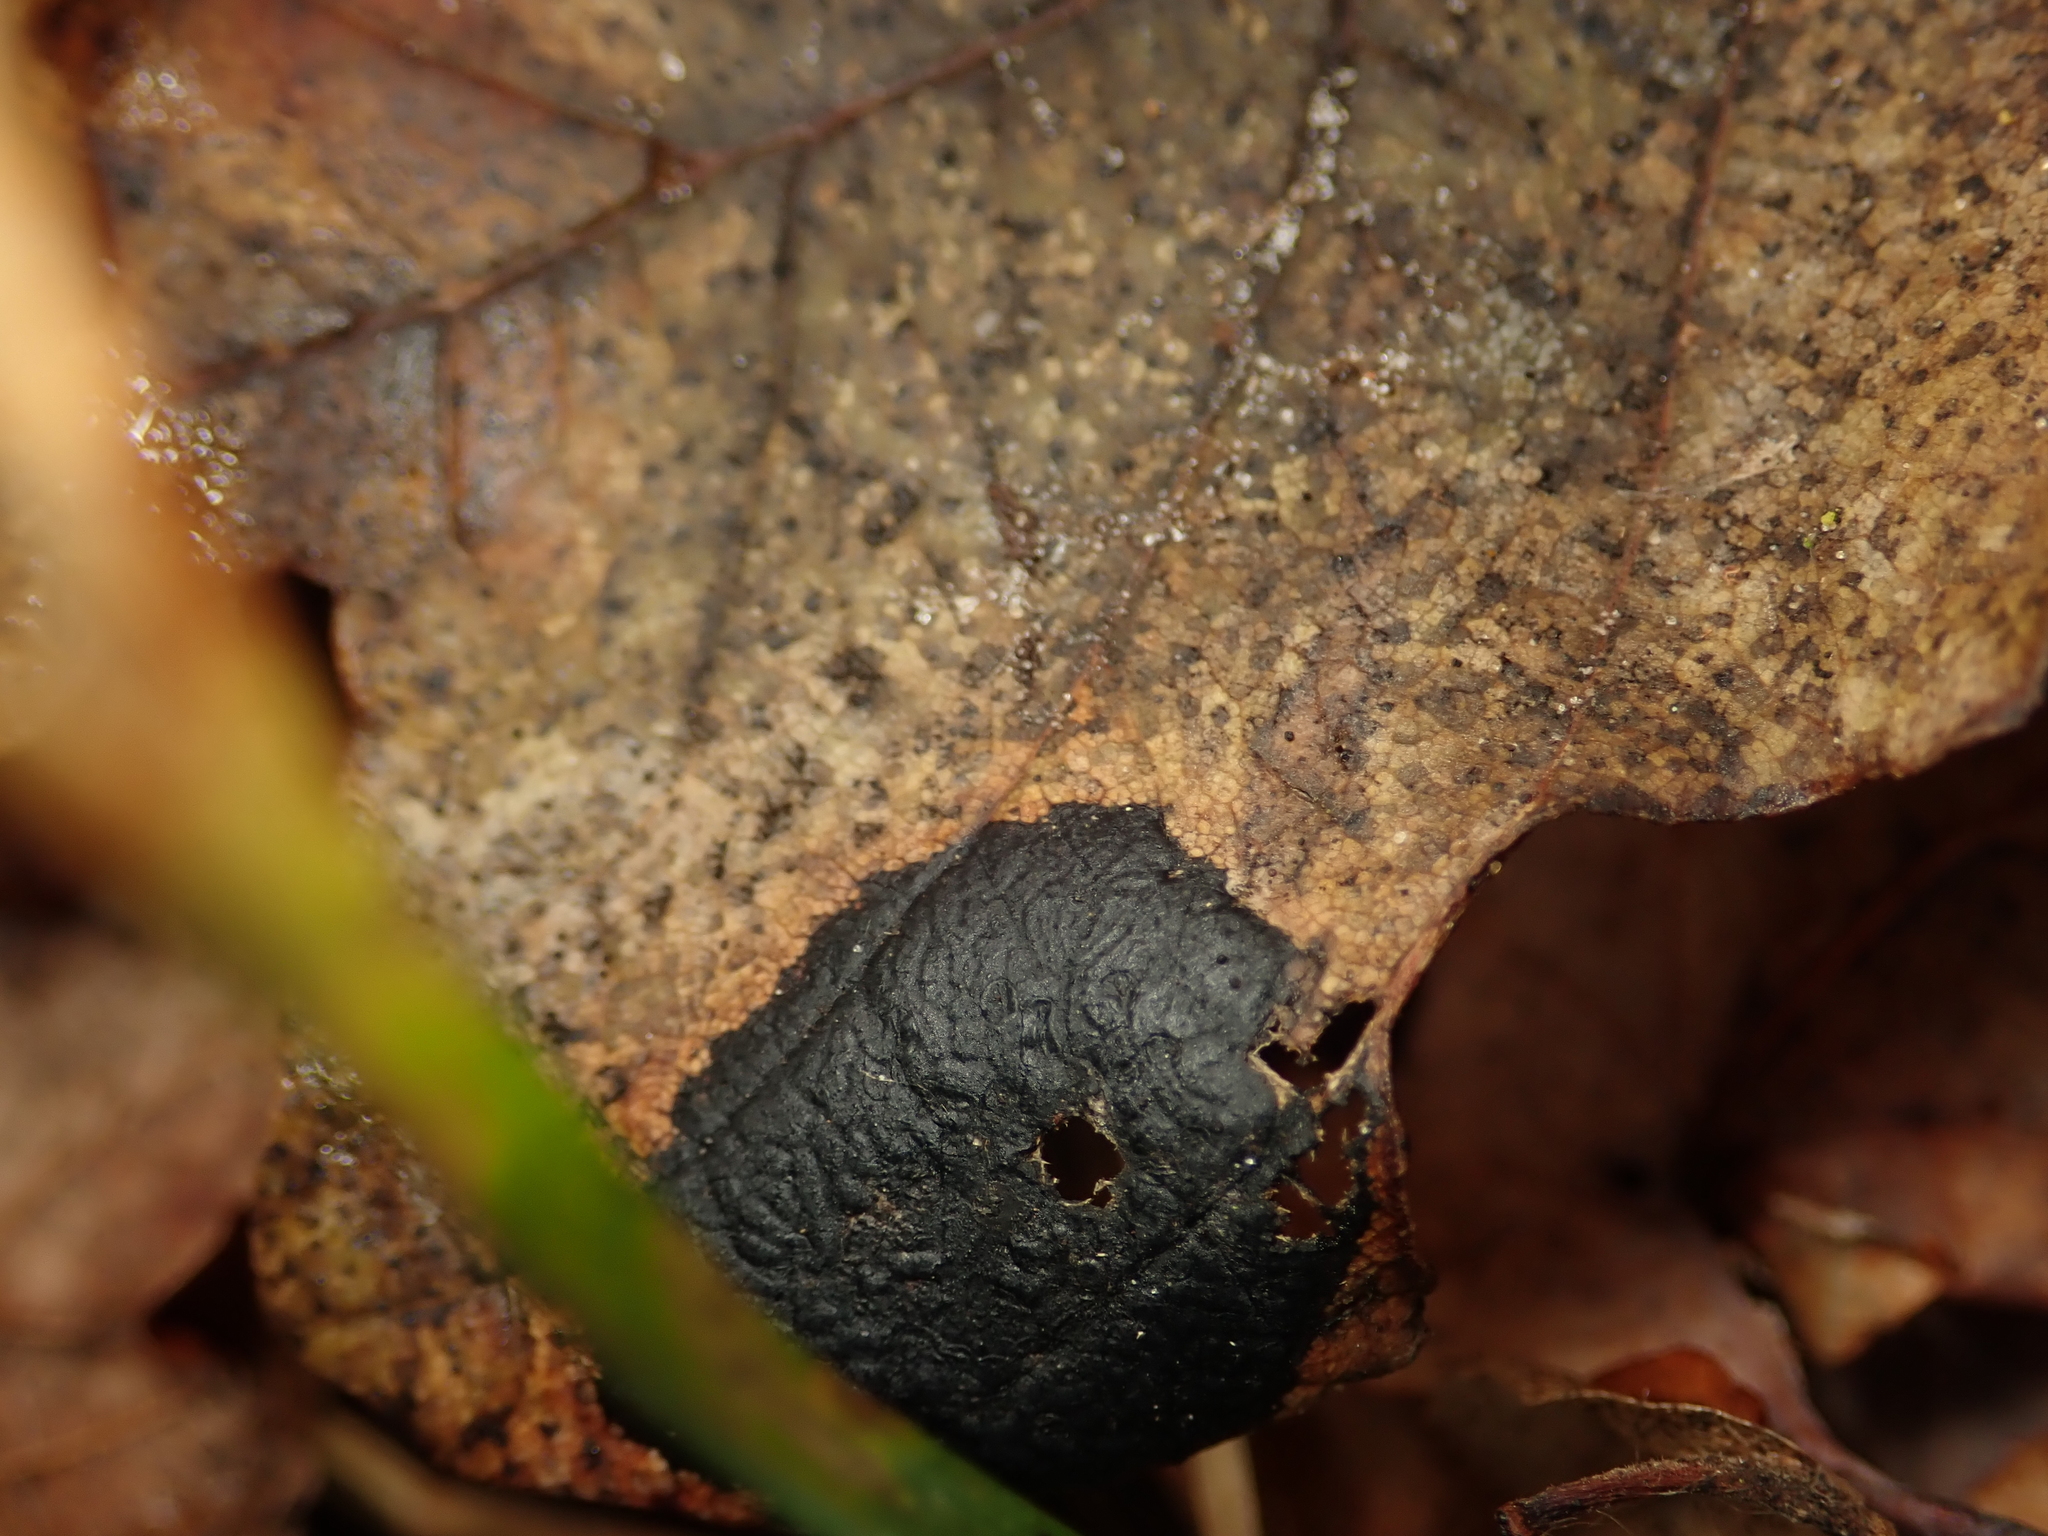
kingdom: Fungi
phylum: Ascomycota
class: Leotiomycetes
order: Rhytismatales
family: Rhytismataceae
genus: Rhytisma
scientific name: Rhytisma acerinum
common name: European tar spot
